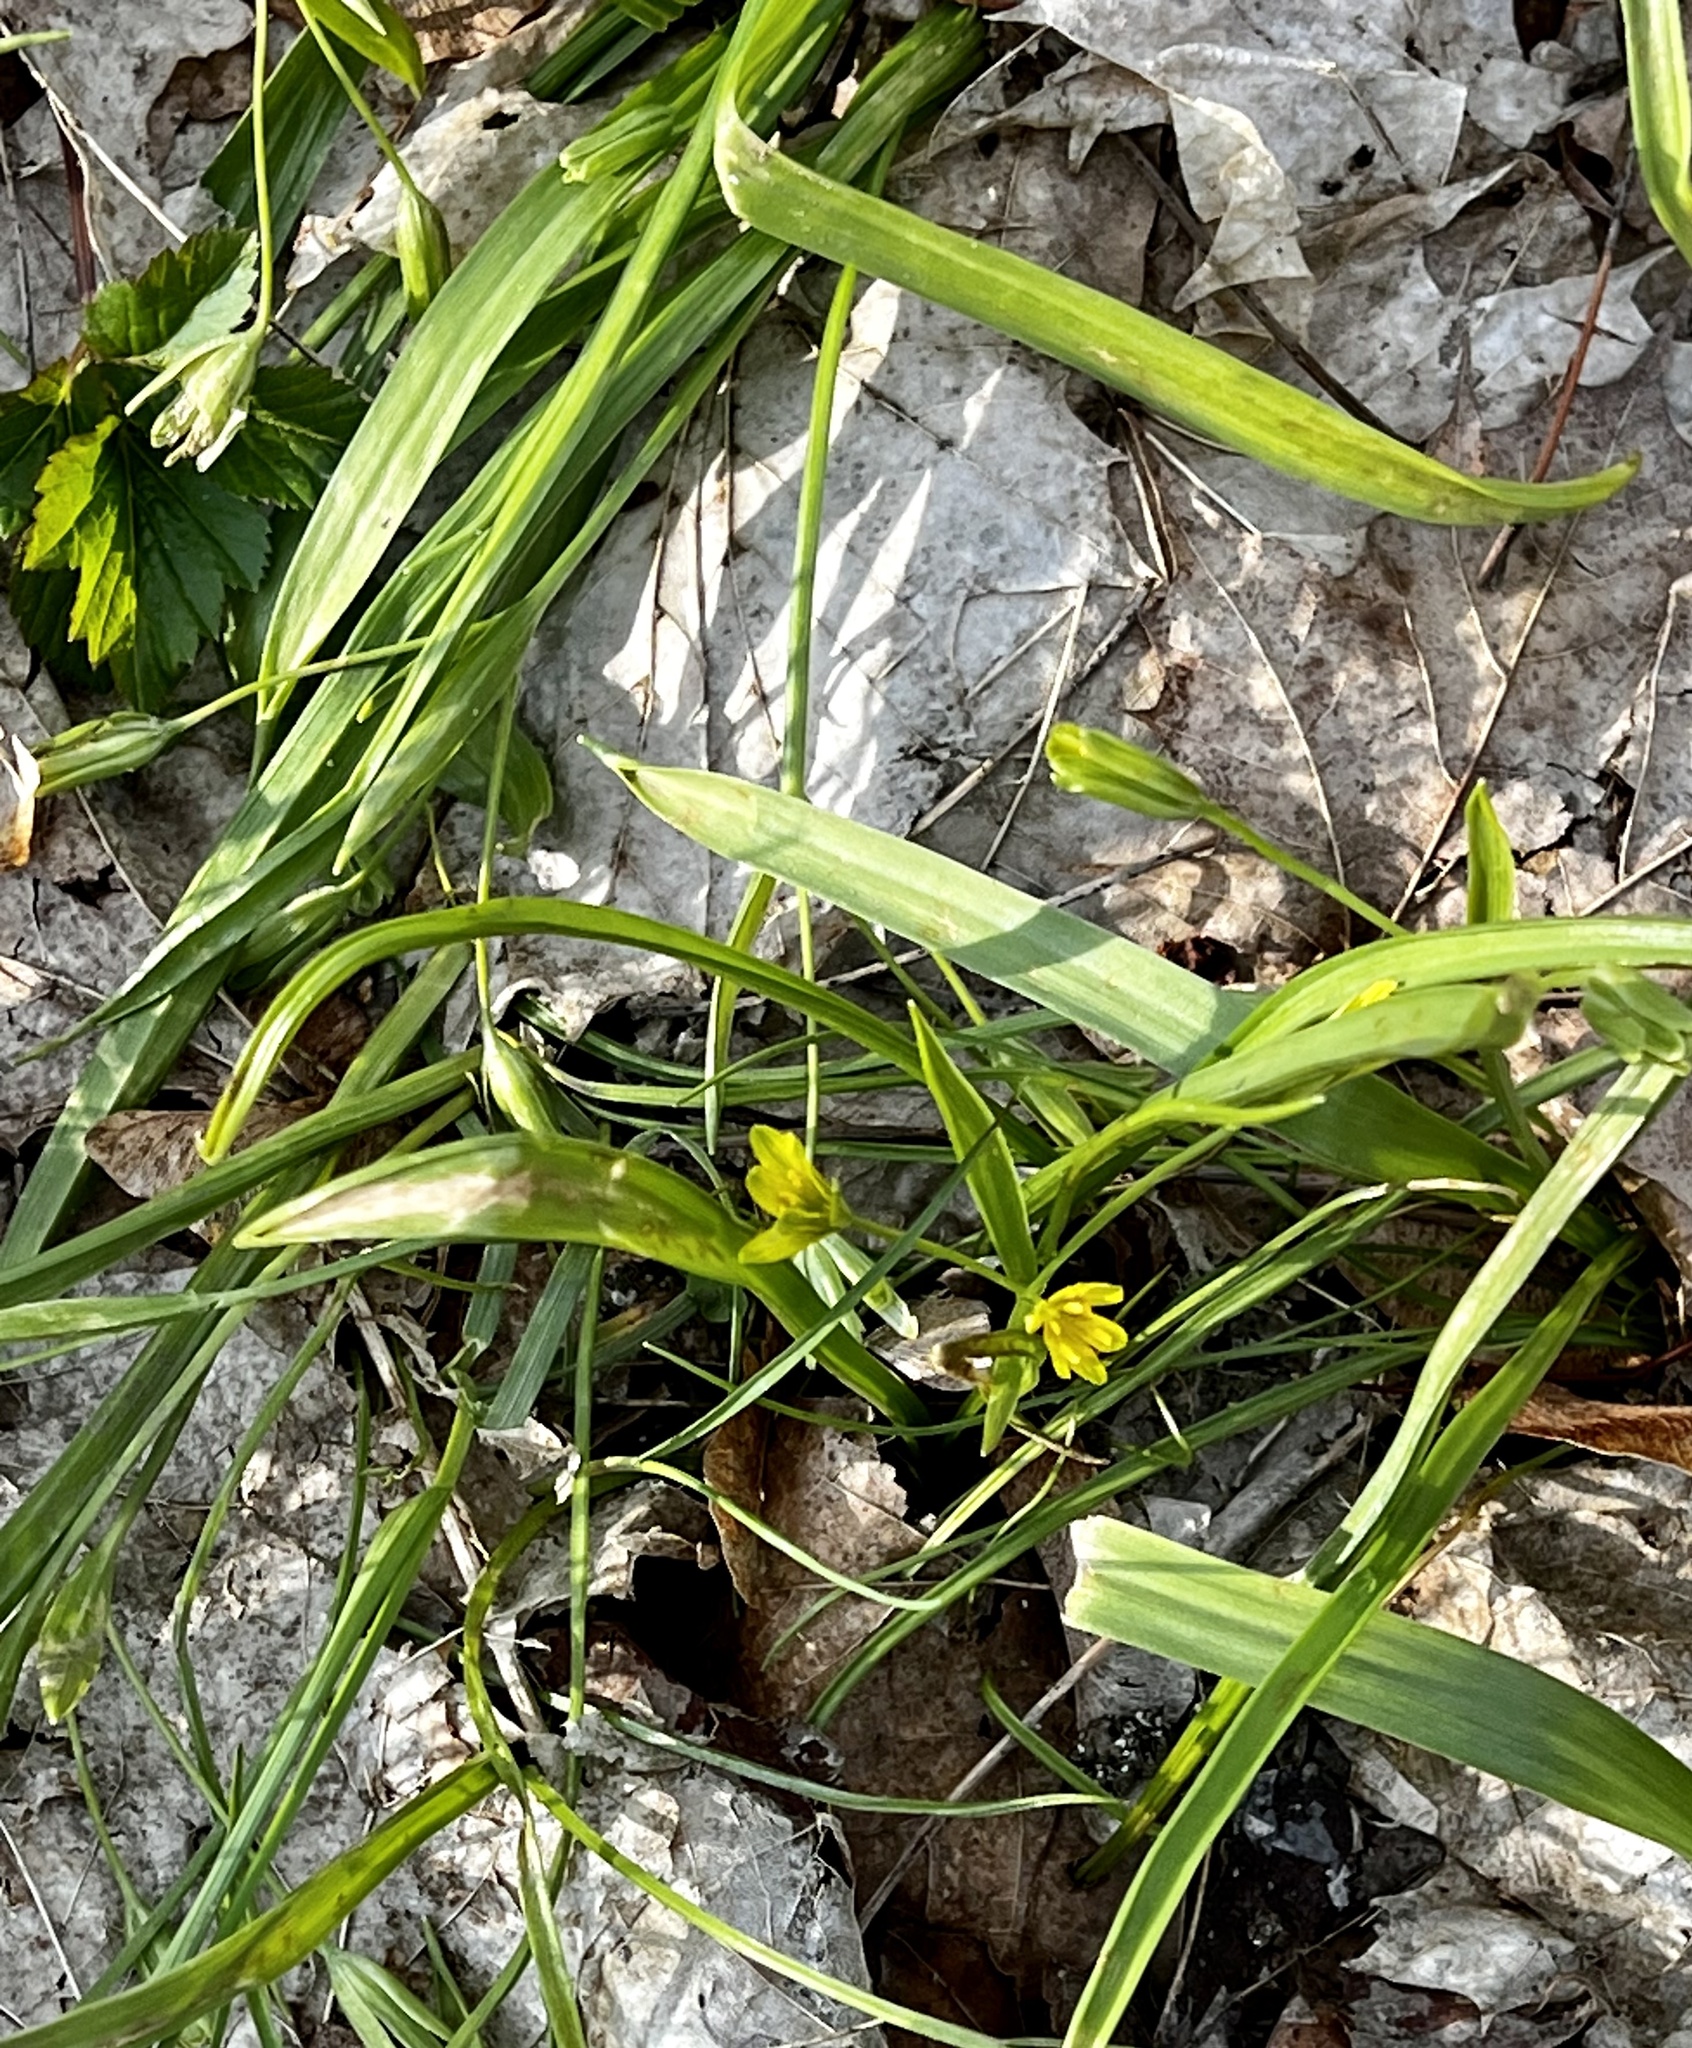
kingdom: Plantae
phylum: Tracheophyta
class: Liliopsida
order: Liliales
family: Liliaceae
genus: Gagea
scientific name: Gagea lutea
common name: Yellow star-of-bethlehem
